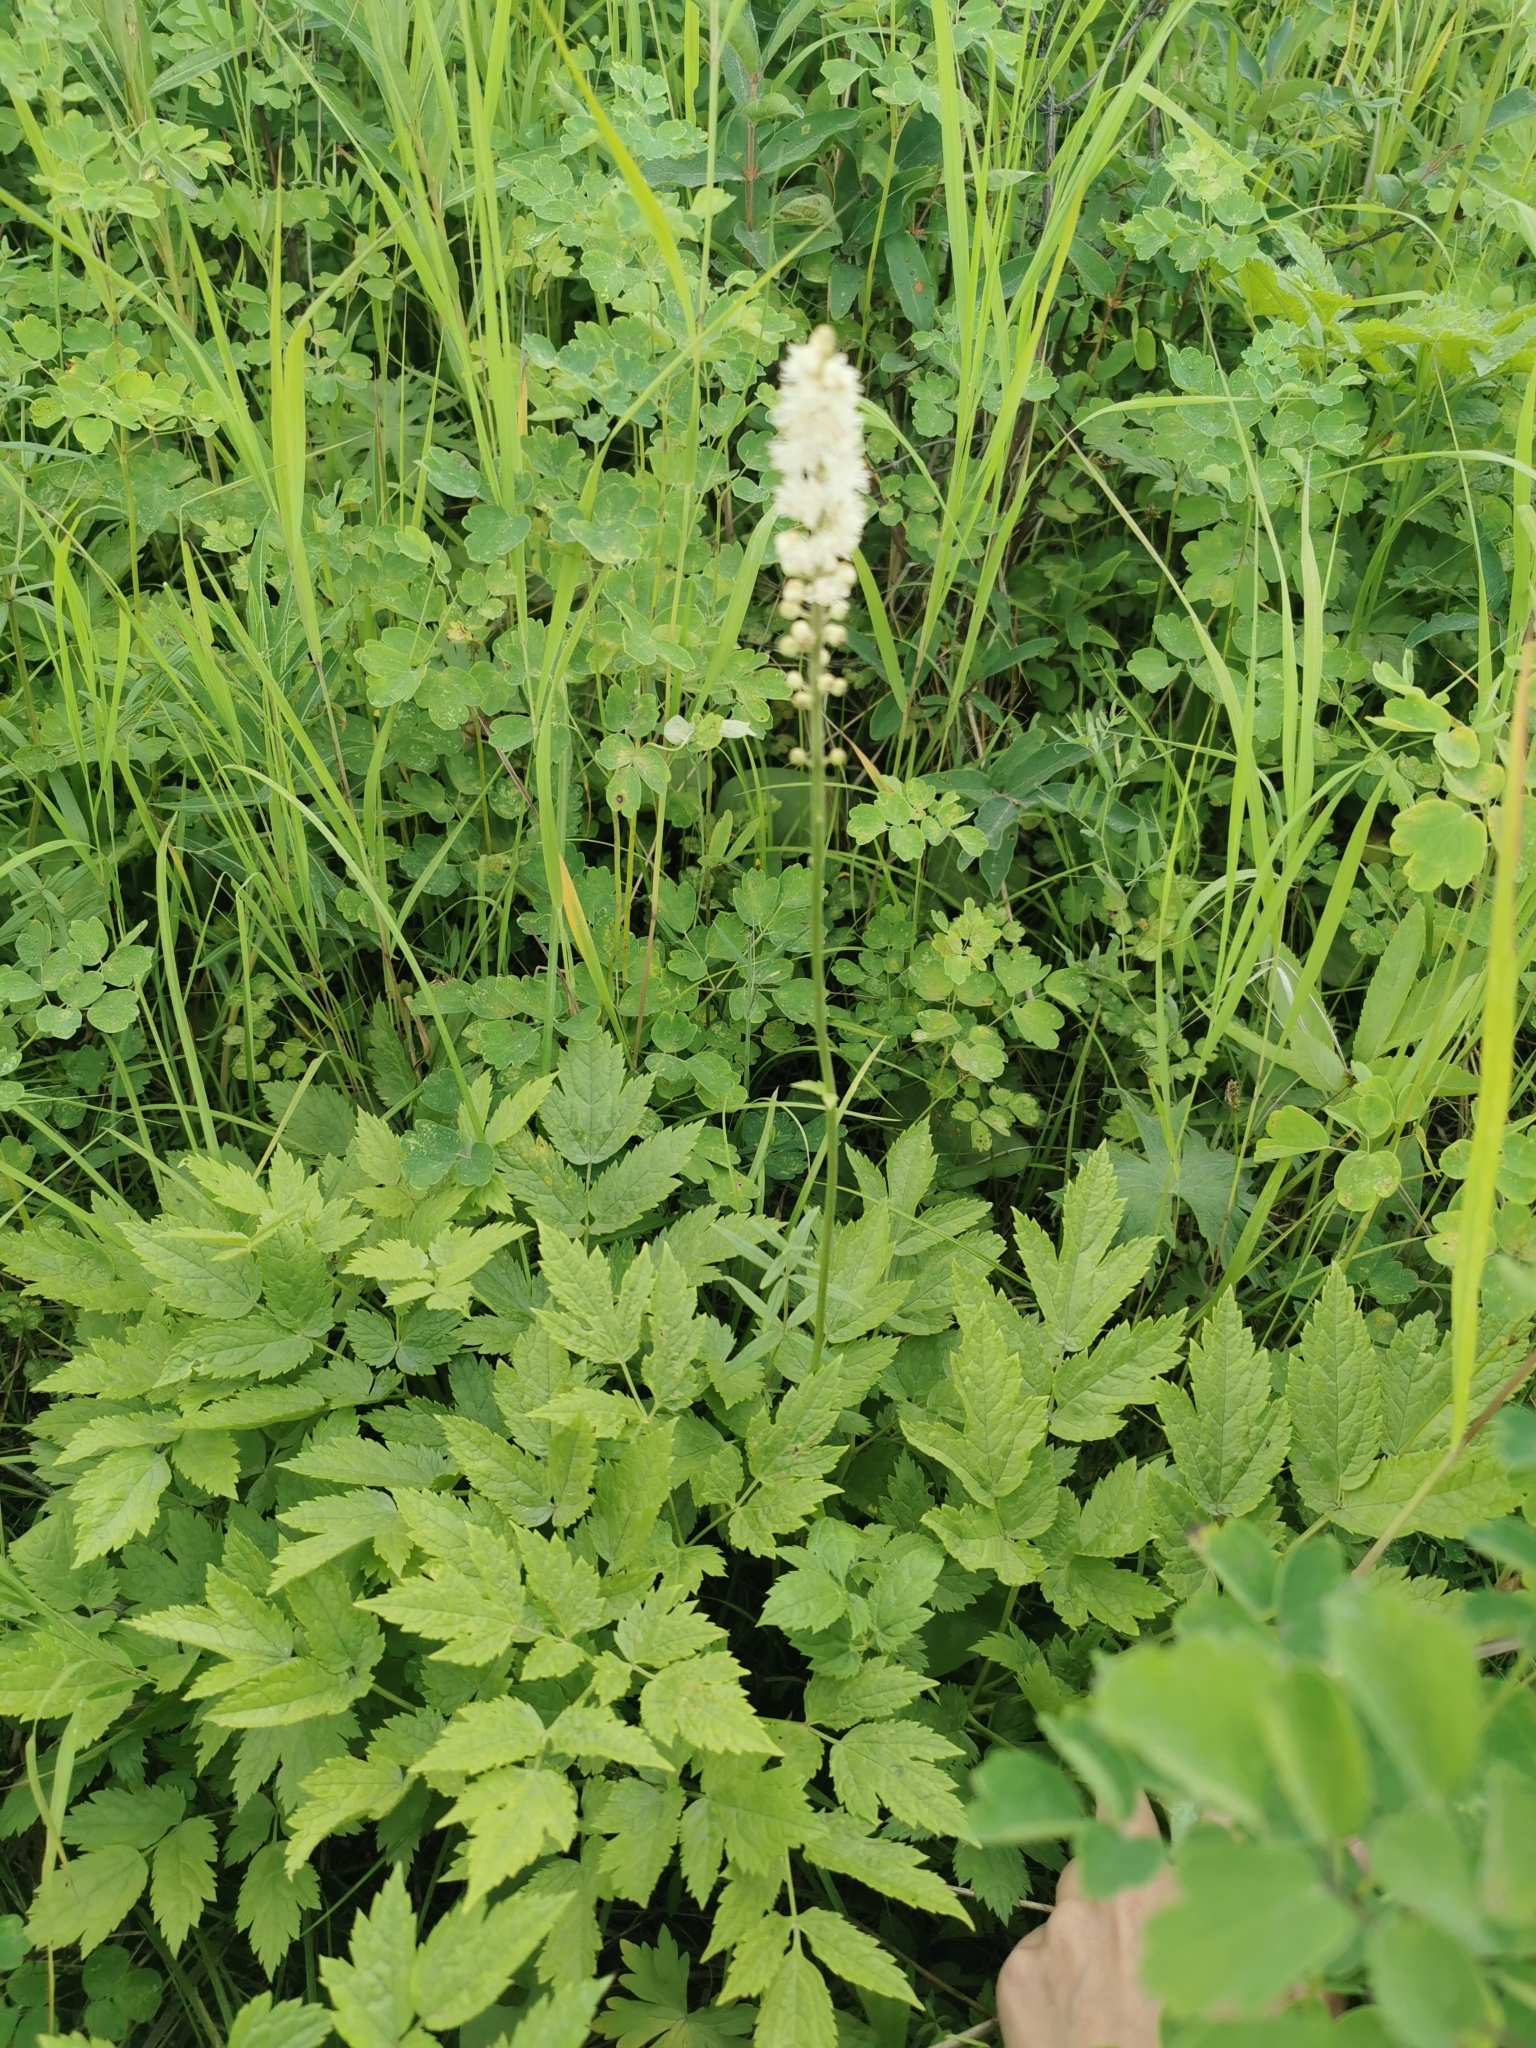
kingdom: Plantae
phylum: Tracheophyta
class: Magnoliopsida
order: Ranunculales
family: Ranunculaceae
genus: Actaea
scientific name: Actaea simplex
